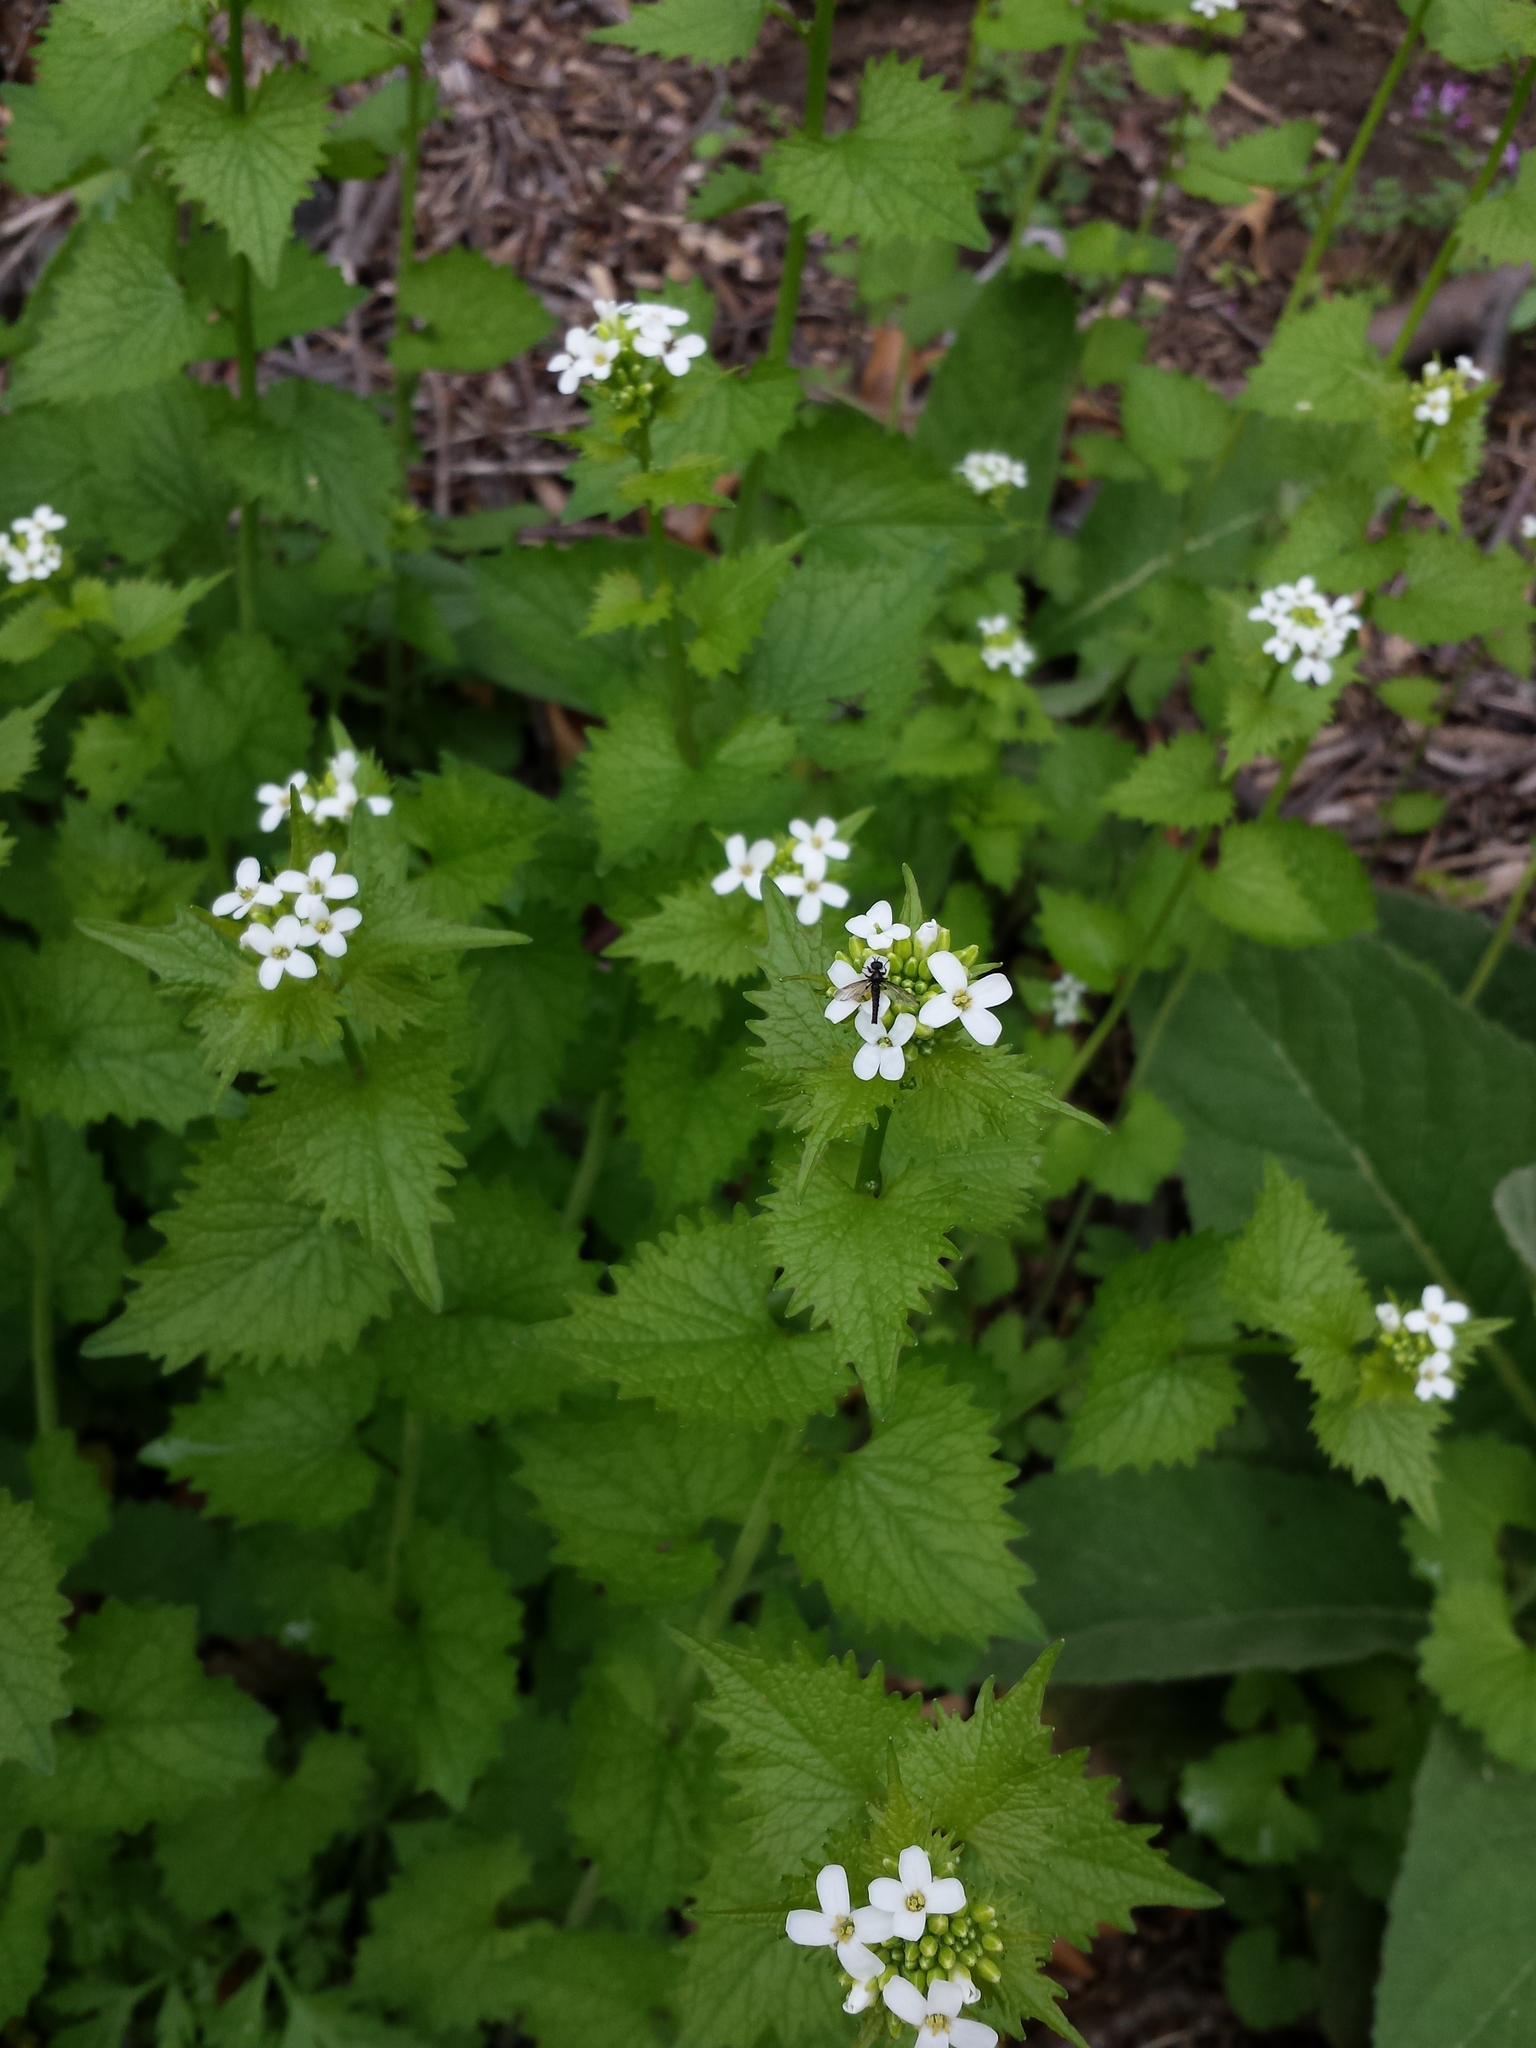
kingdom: Plantae
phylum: Tracheophyta
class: Magnoliopsida
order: Brassicales
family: Brassicaceae
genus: Alliaria
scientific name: Alliaria petiolata
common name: Garlic mustard
